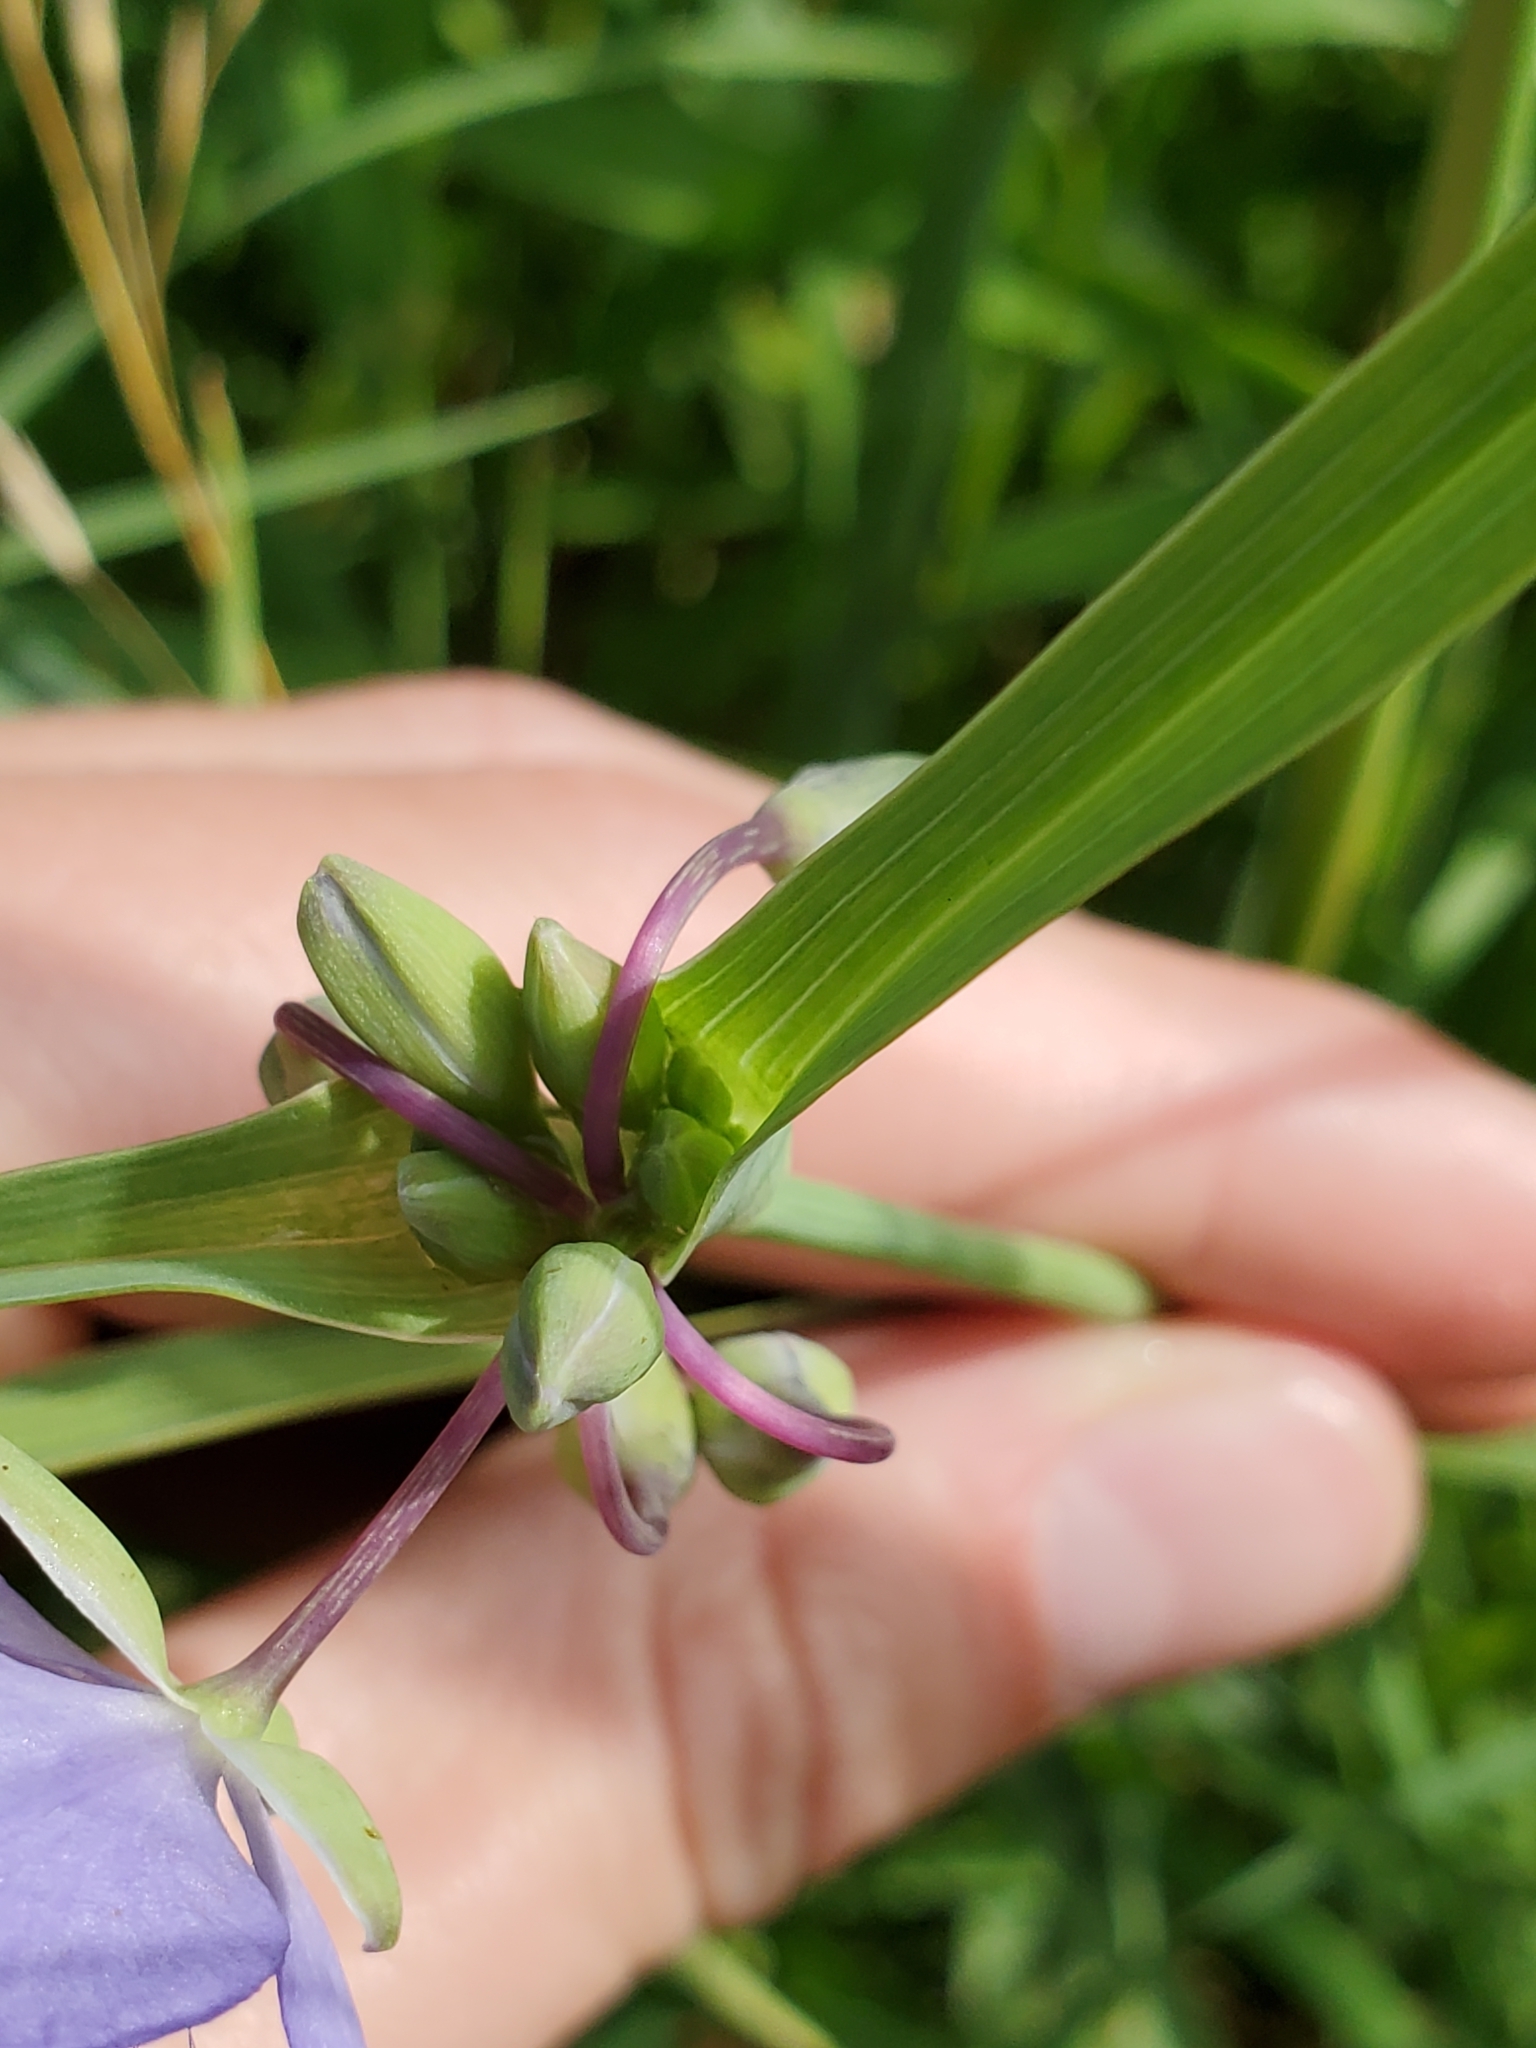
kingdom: Plantae
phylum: Tracheophyta
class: Liliopsida
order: Commelinales
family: Commelinaceae
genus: Tradescantia
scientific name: Tradescantia ohiensis
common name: Ohio spiderwort
